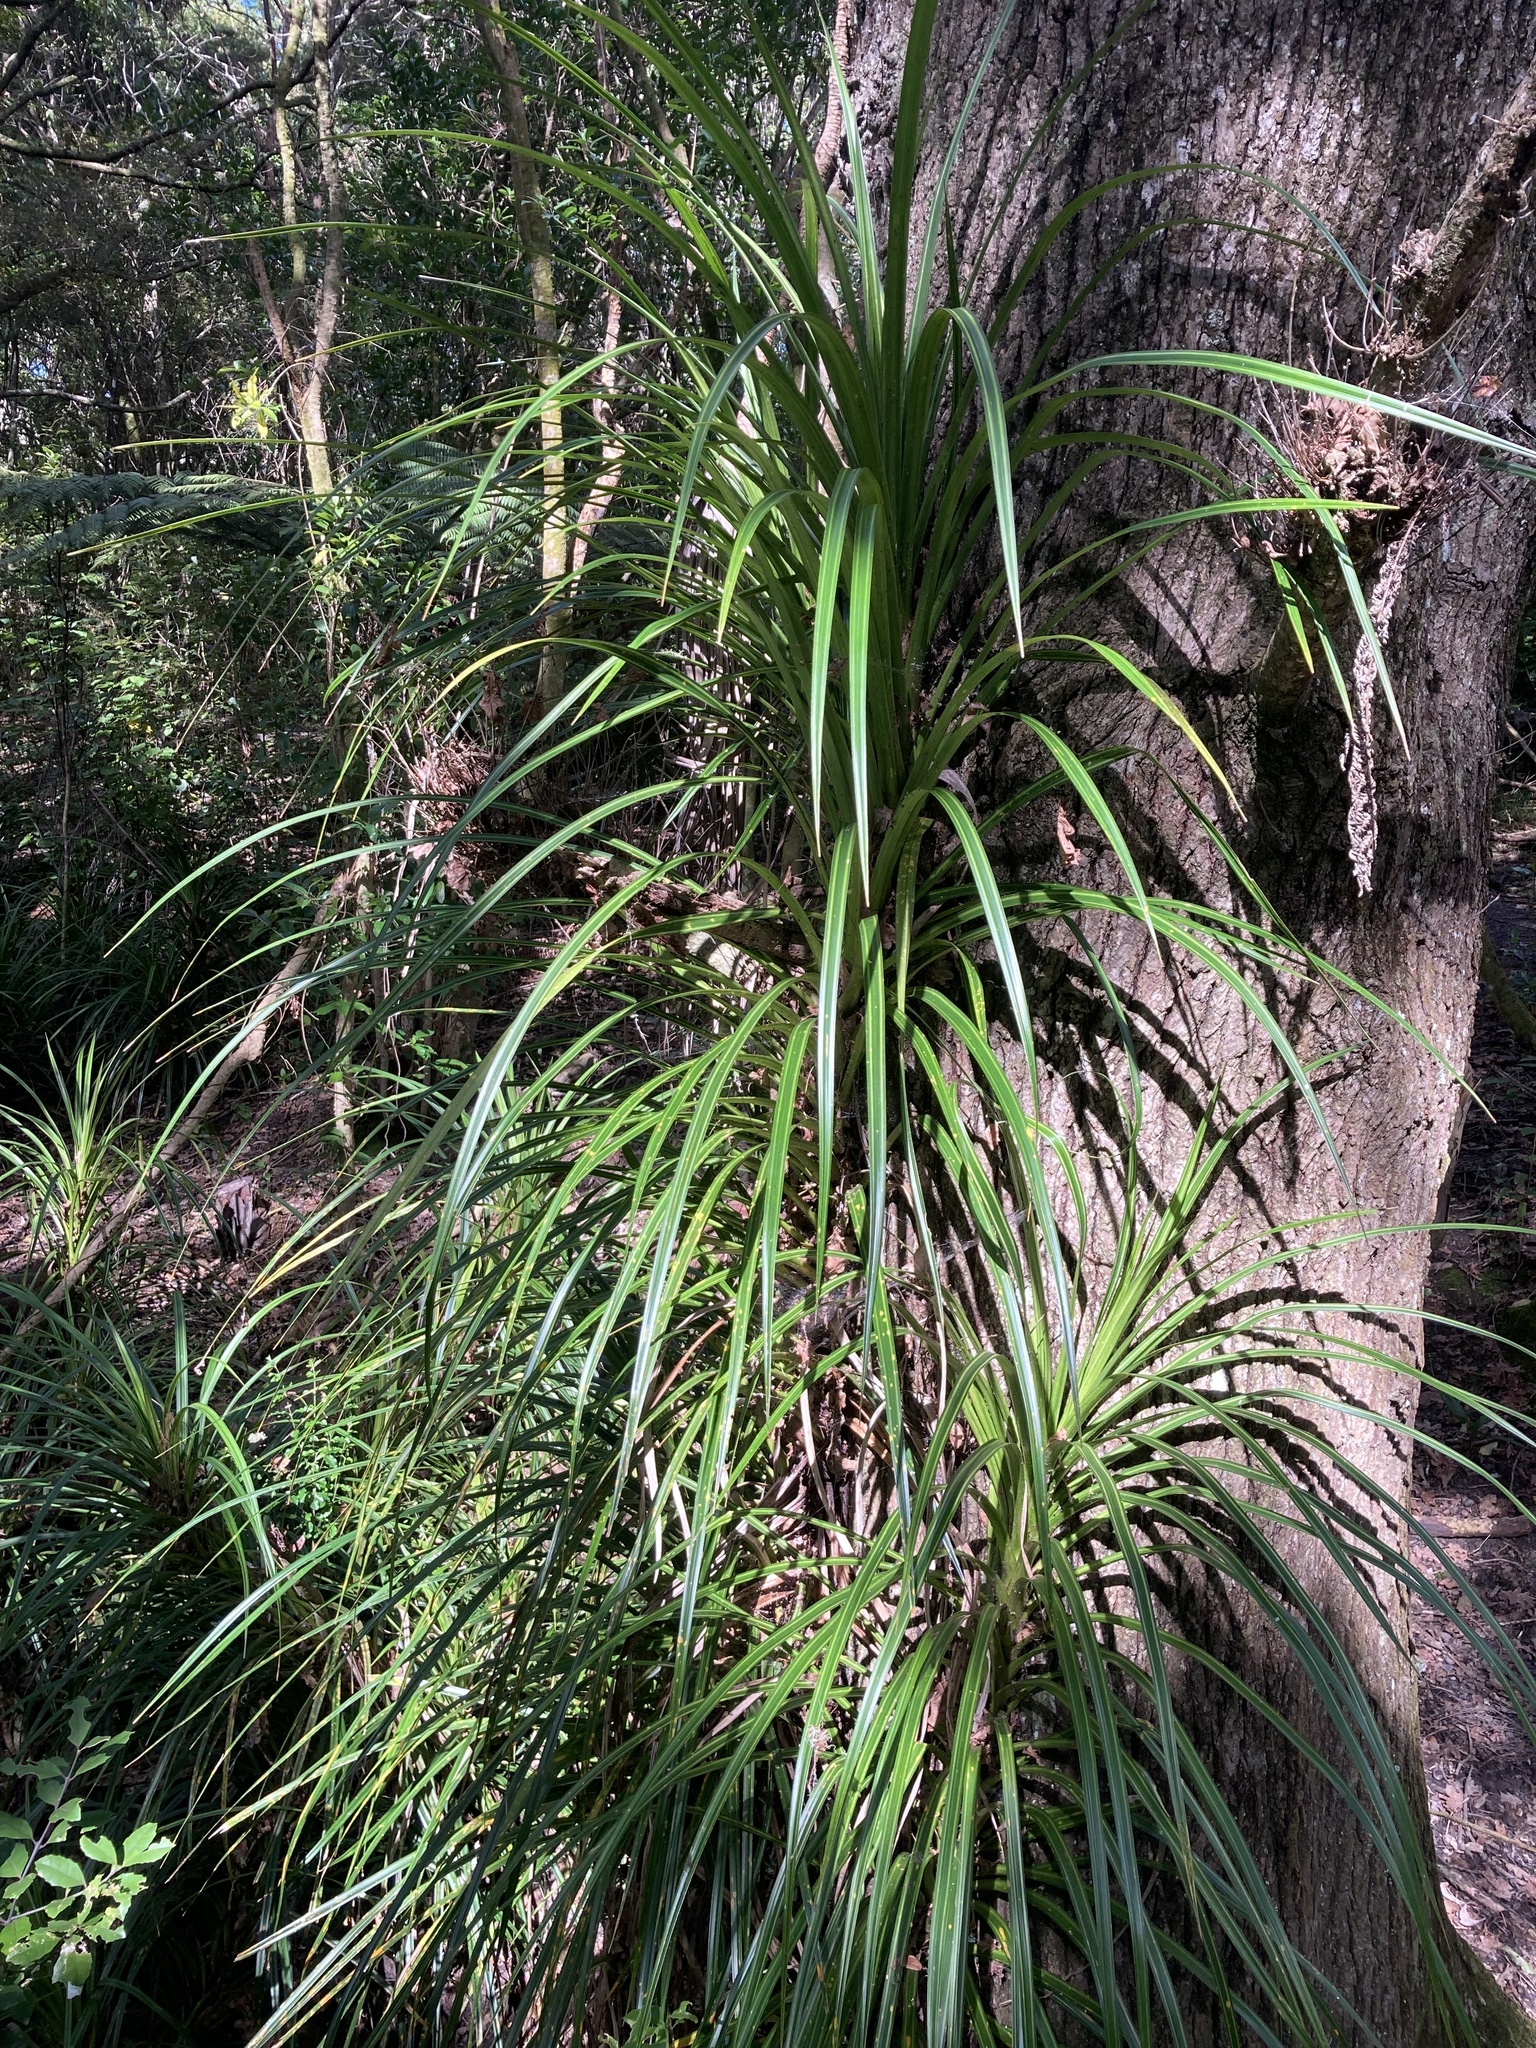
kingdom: Plantae
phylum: Tracheophyta
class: Liliopsida
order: Pandanales
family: Pandanaceae
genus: Freycinetia
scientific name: Freycinetia banksii
